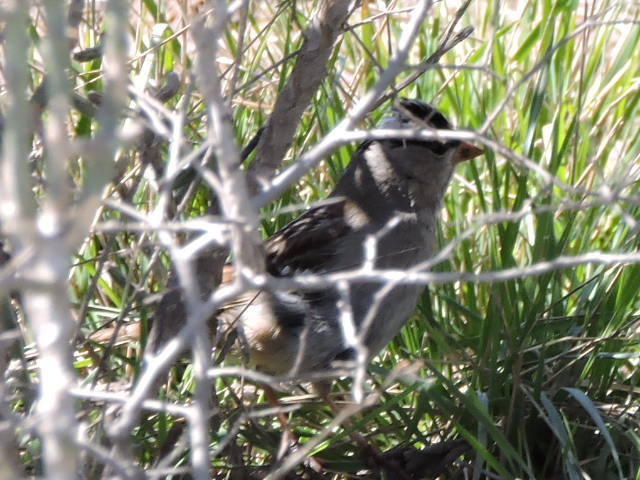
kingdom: Animalia
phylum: Chordata
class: Aves
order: Passeriformes
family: Passerellidae
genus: Zonotrichia
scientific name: Zonotrichia leucophrys
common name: White-crowned sparrow
